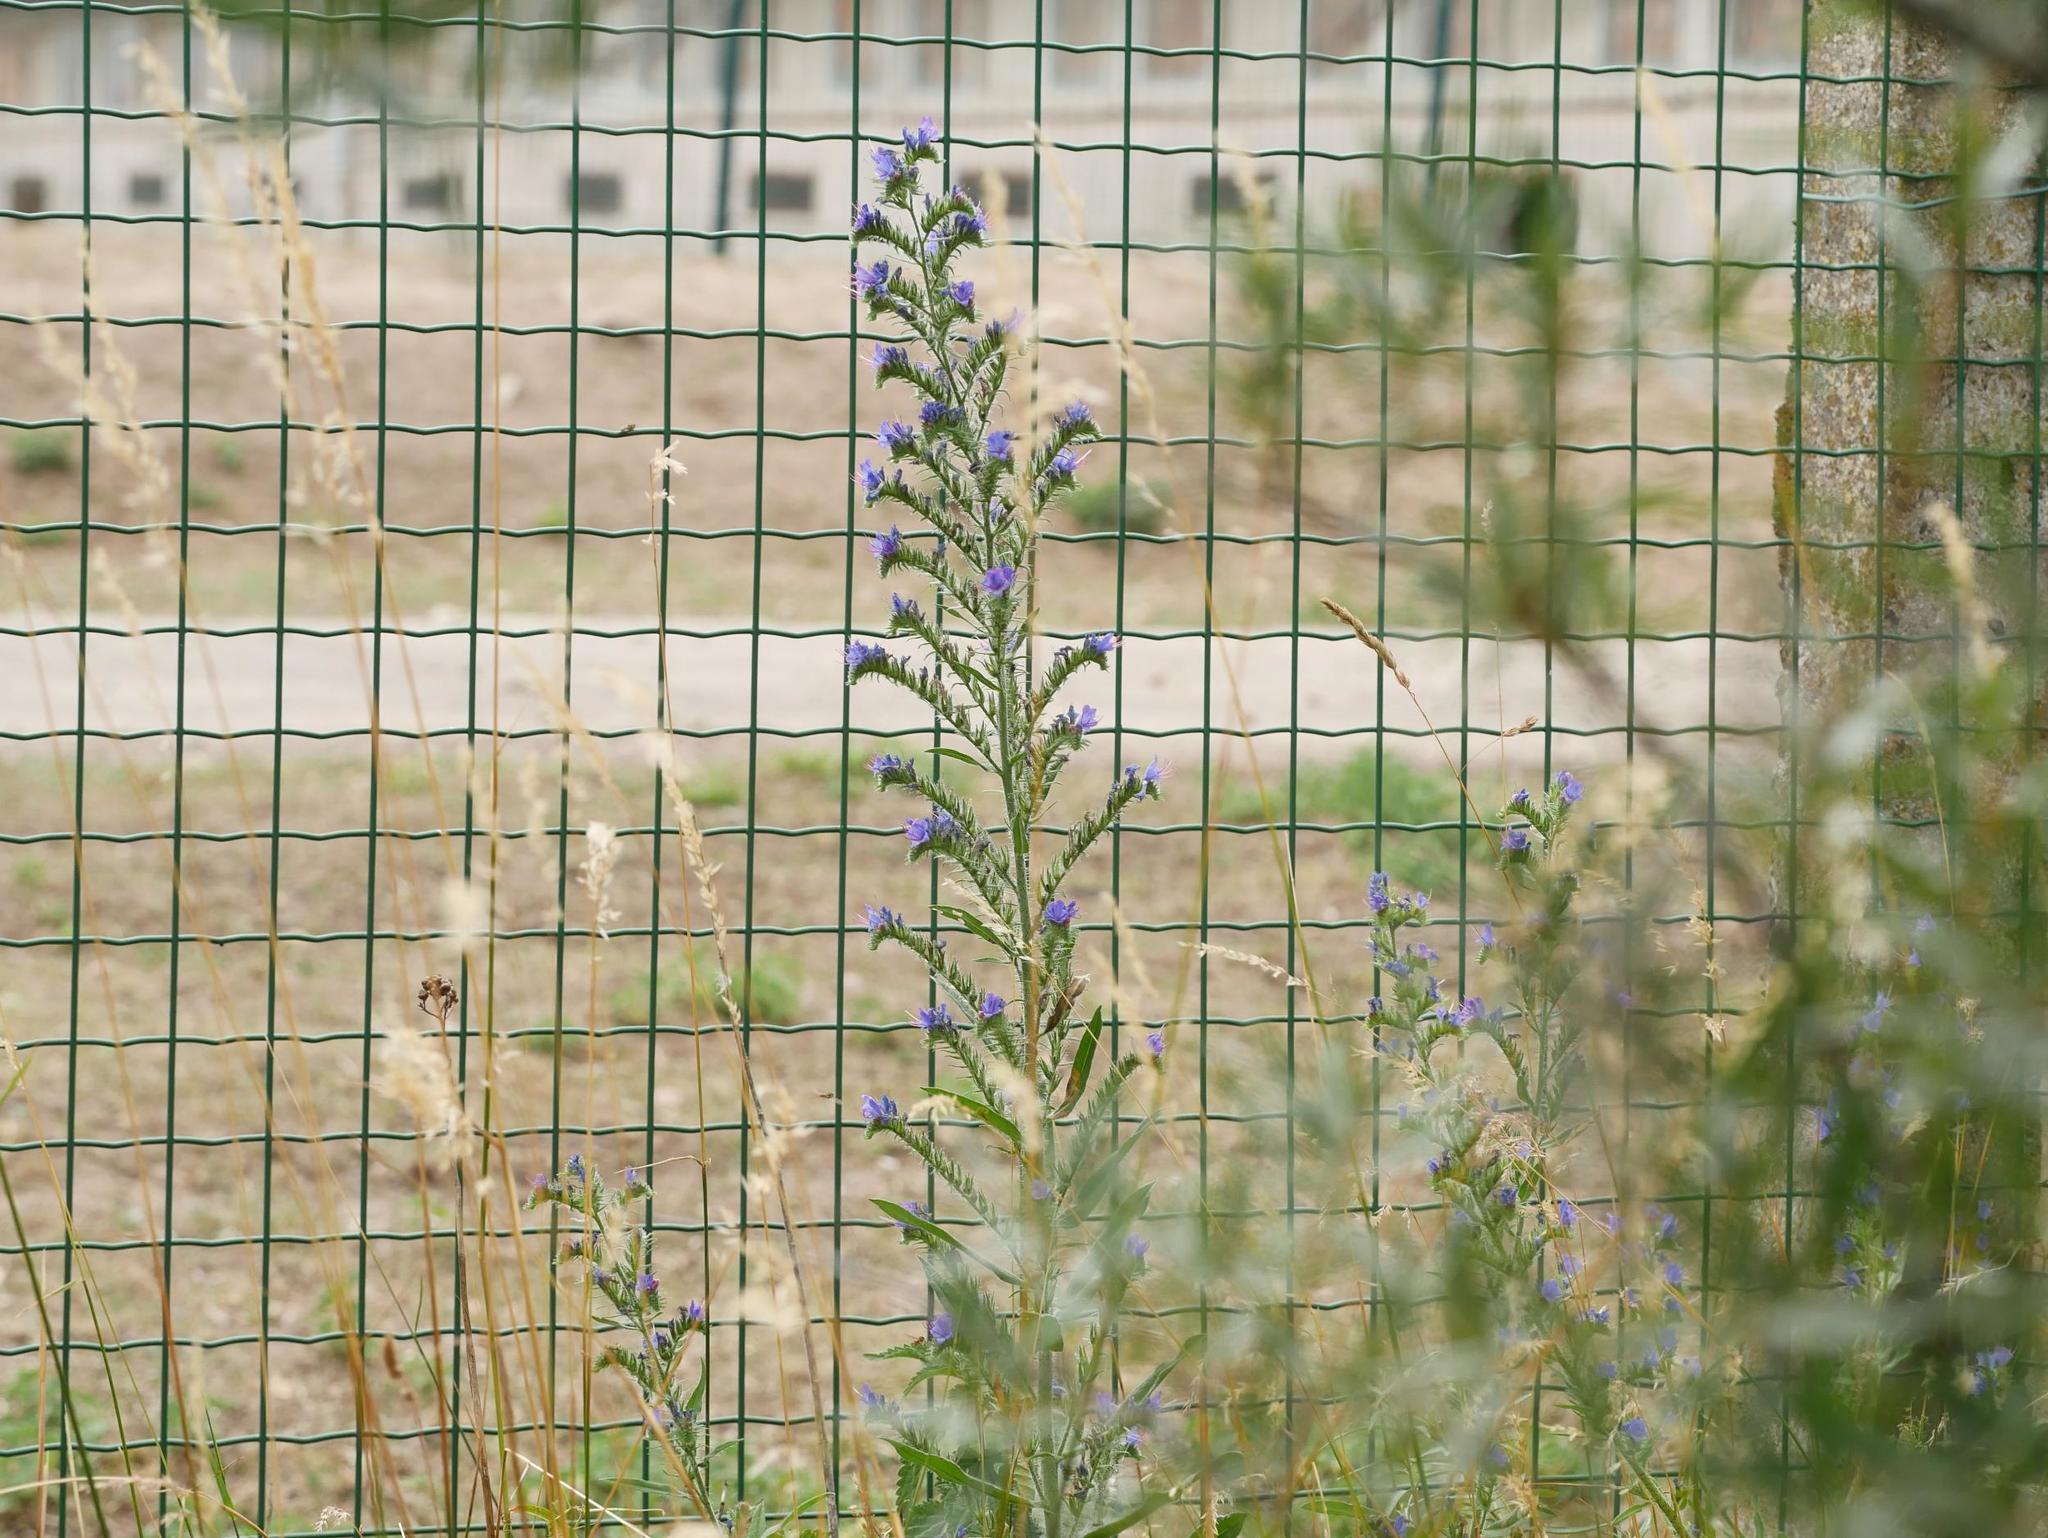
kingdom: Plantae
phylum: Tracheophyta
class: Magnoliopsida
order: Boraginales
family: Boraginaceae
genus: Echium
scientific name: Echium vulgare
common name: Common viper's bugloss
